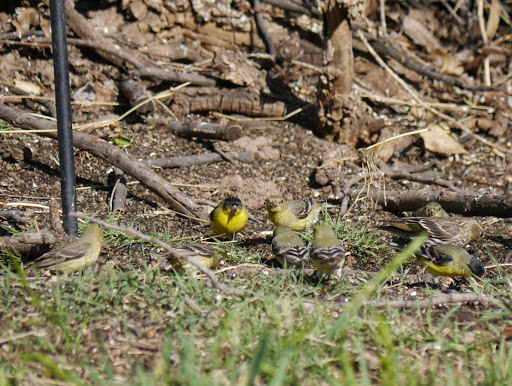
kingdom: Animalia
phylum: Chordata
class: Aves
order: Passeriformes
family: Fringillidae
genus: Spinus
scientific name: Spinus psaltria
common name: Lesser goldfinch
